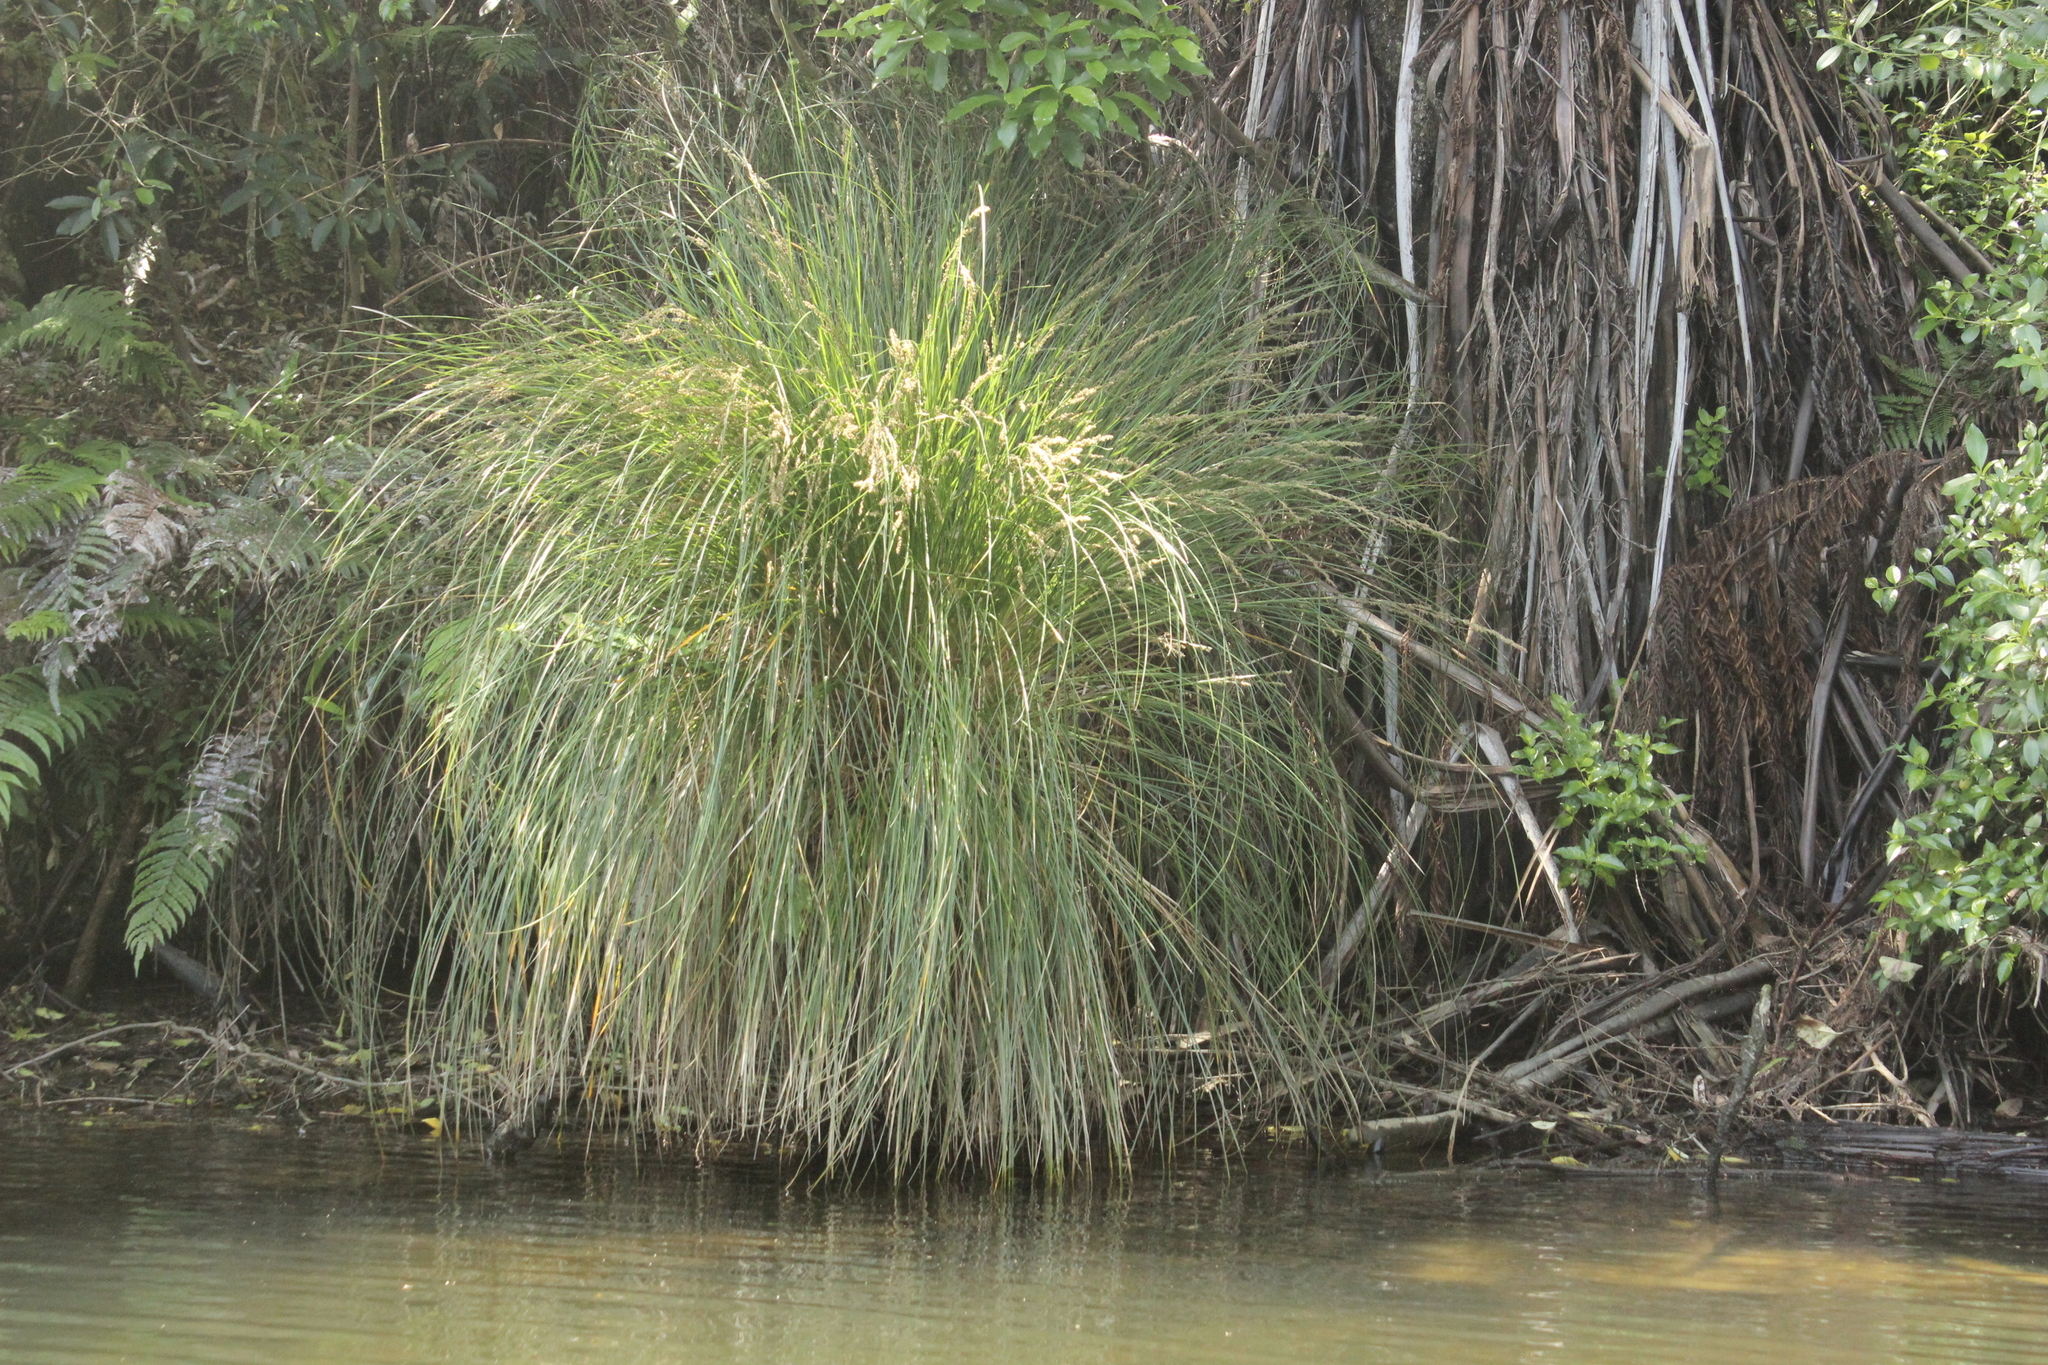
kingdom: Plantae
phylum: Tracheophyta
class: Liliopsida
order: Poales
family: Cyperaceae
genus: Carex
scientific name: Carex secta
